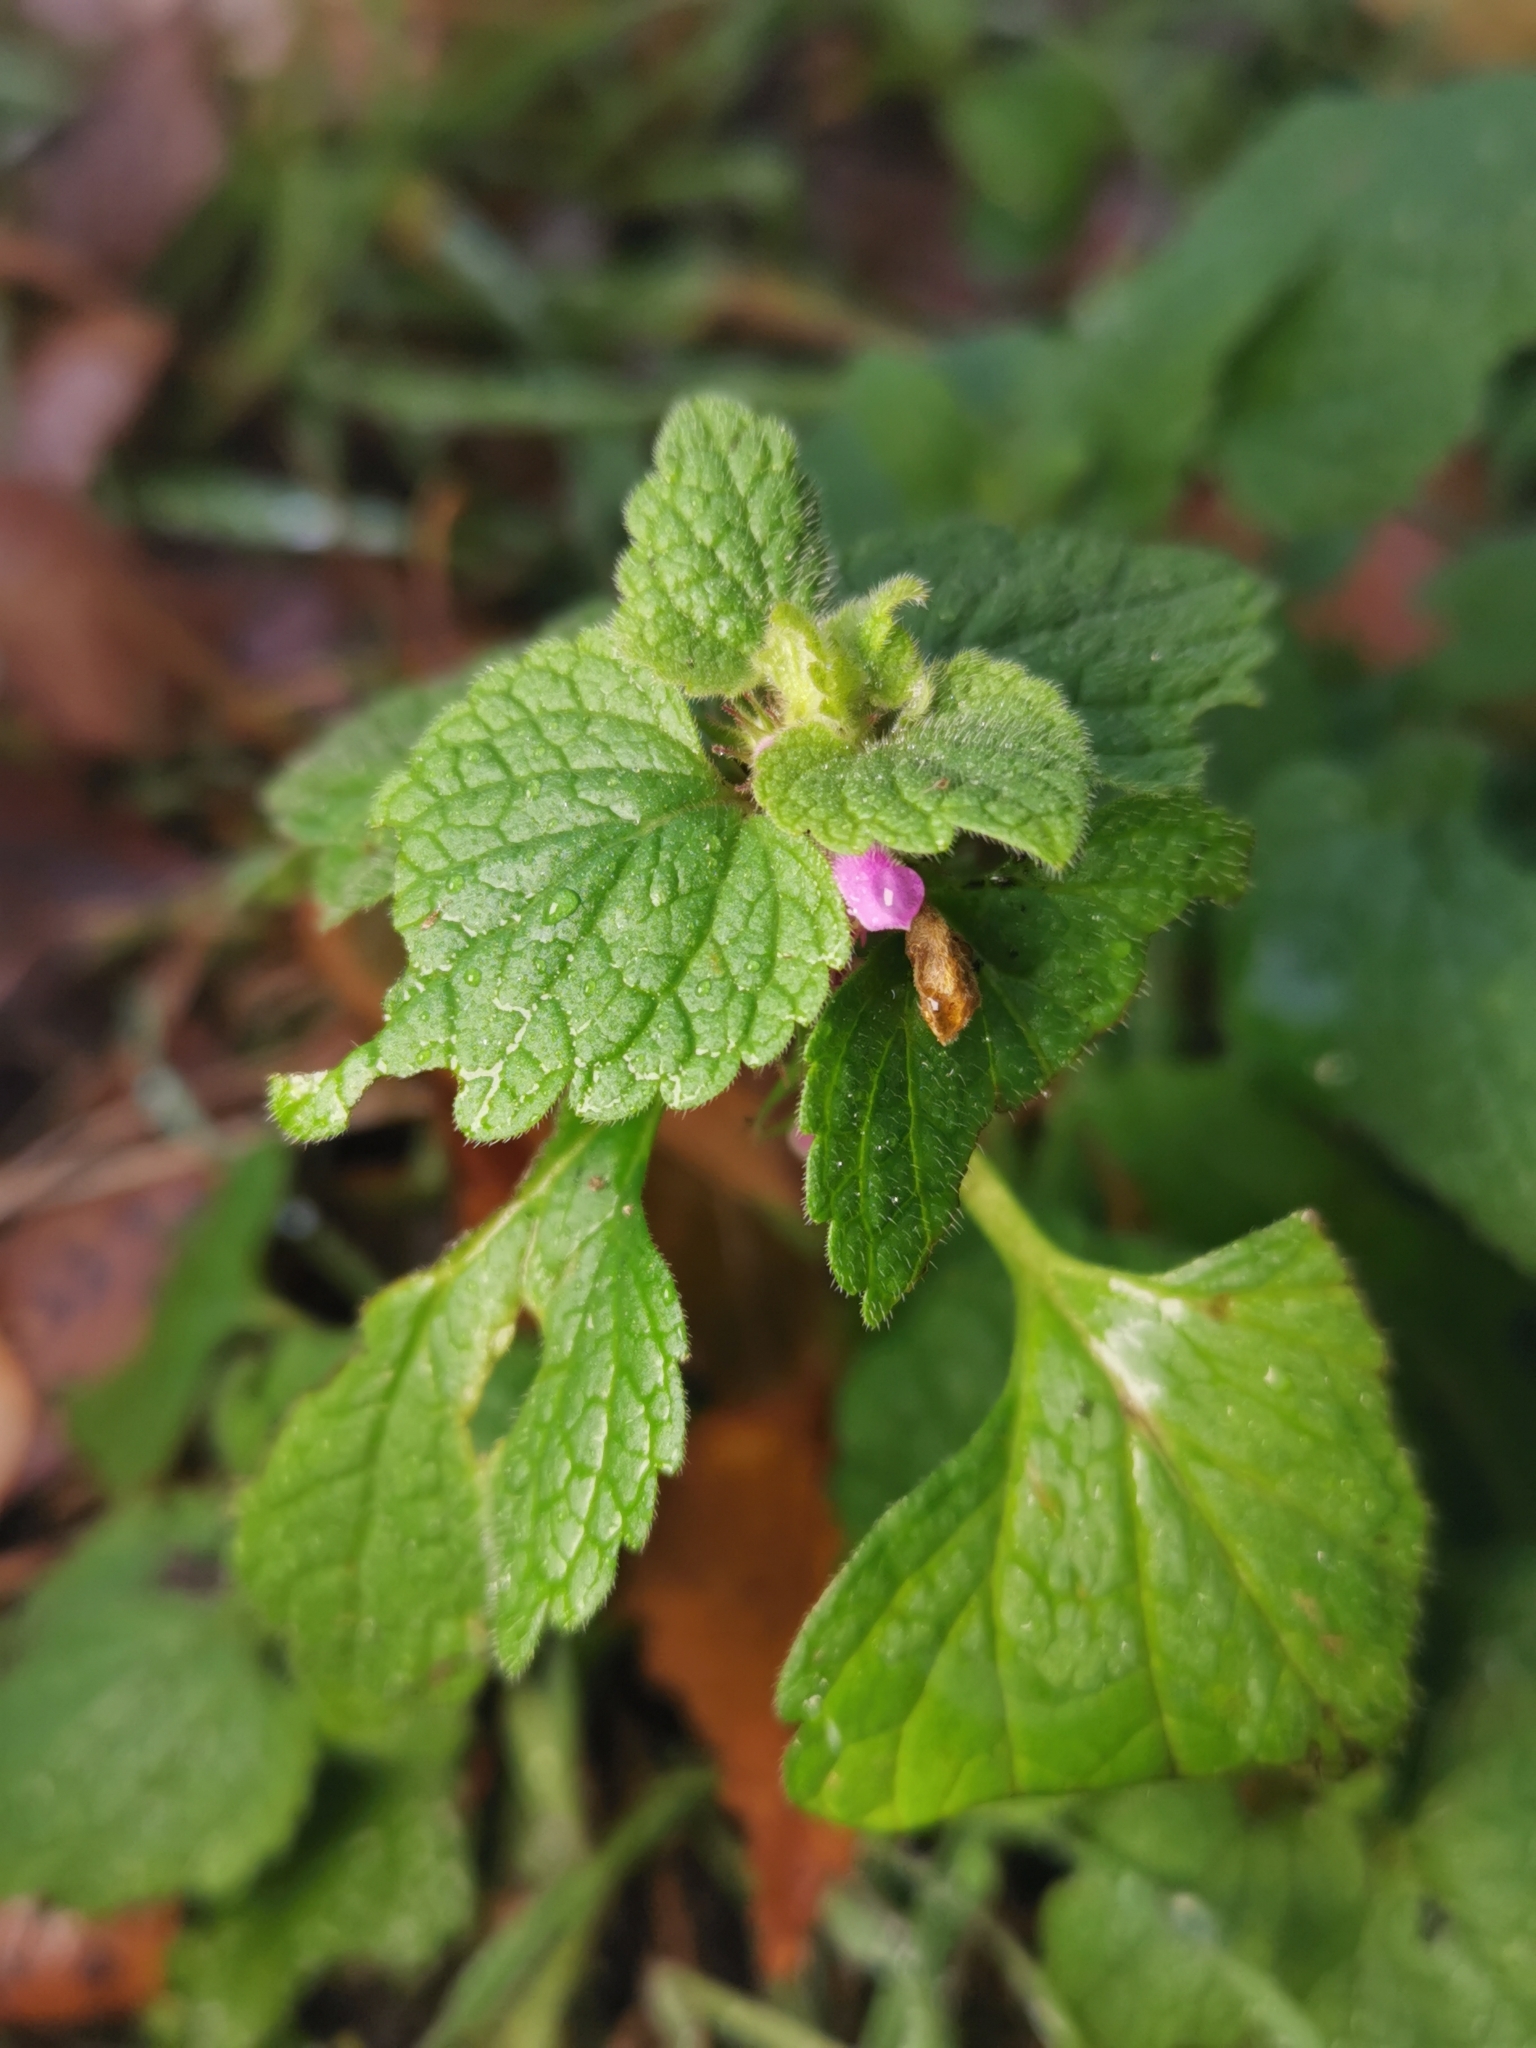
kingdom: Plantae
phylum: Tracheophyta
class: Magnoliopsida
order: Lamiales
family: Lamiaceae
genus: Lamium
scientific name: Lamium purpureum
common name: Red dead-nettle
